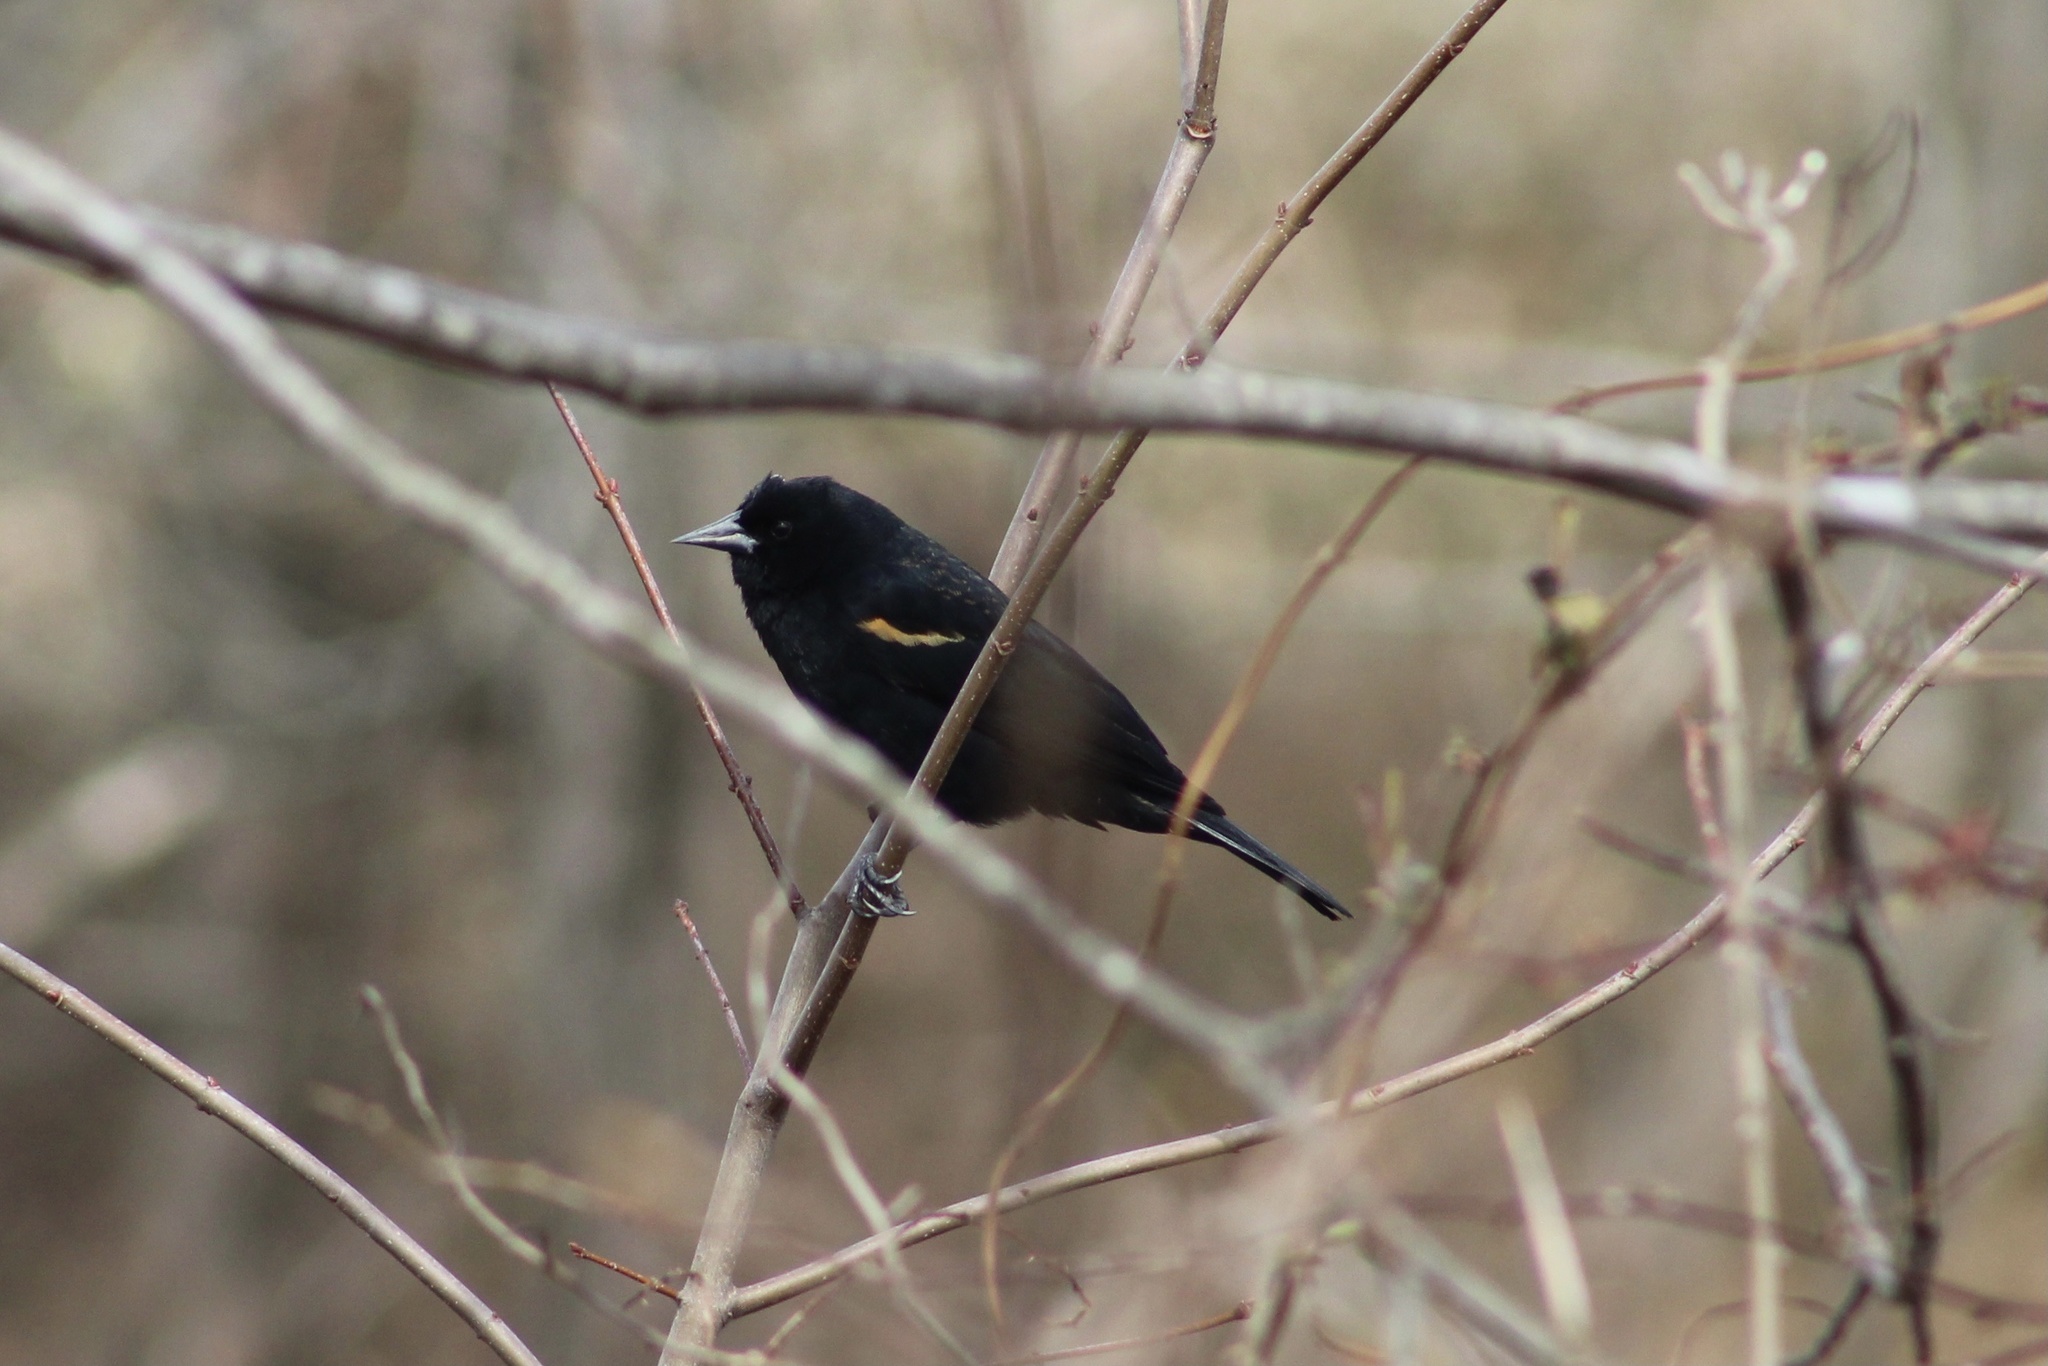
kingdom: Animalia
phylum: Chordata
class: Aves
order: Passeriformes
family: Icteridae
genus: Agelaius
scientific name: Agelaius phoeniceus
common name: Red-winged blackbird
